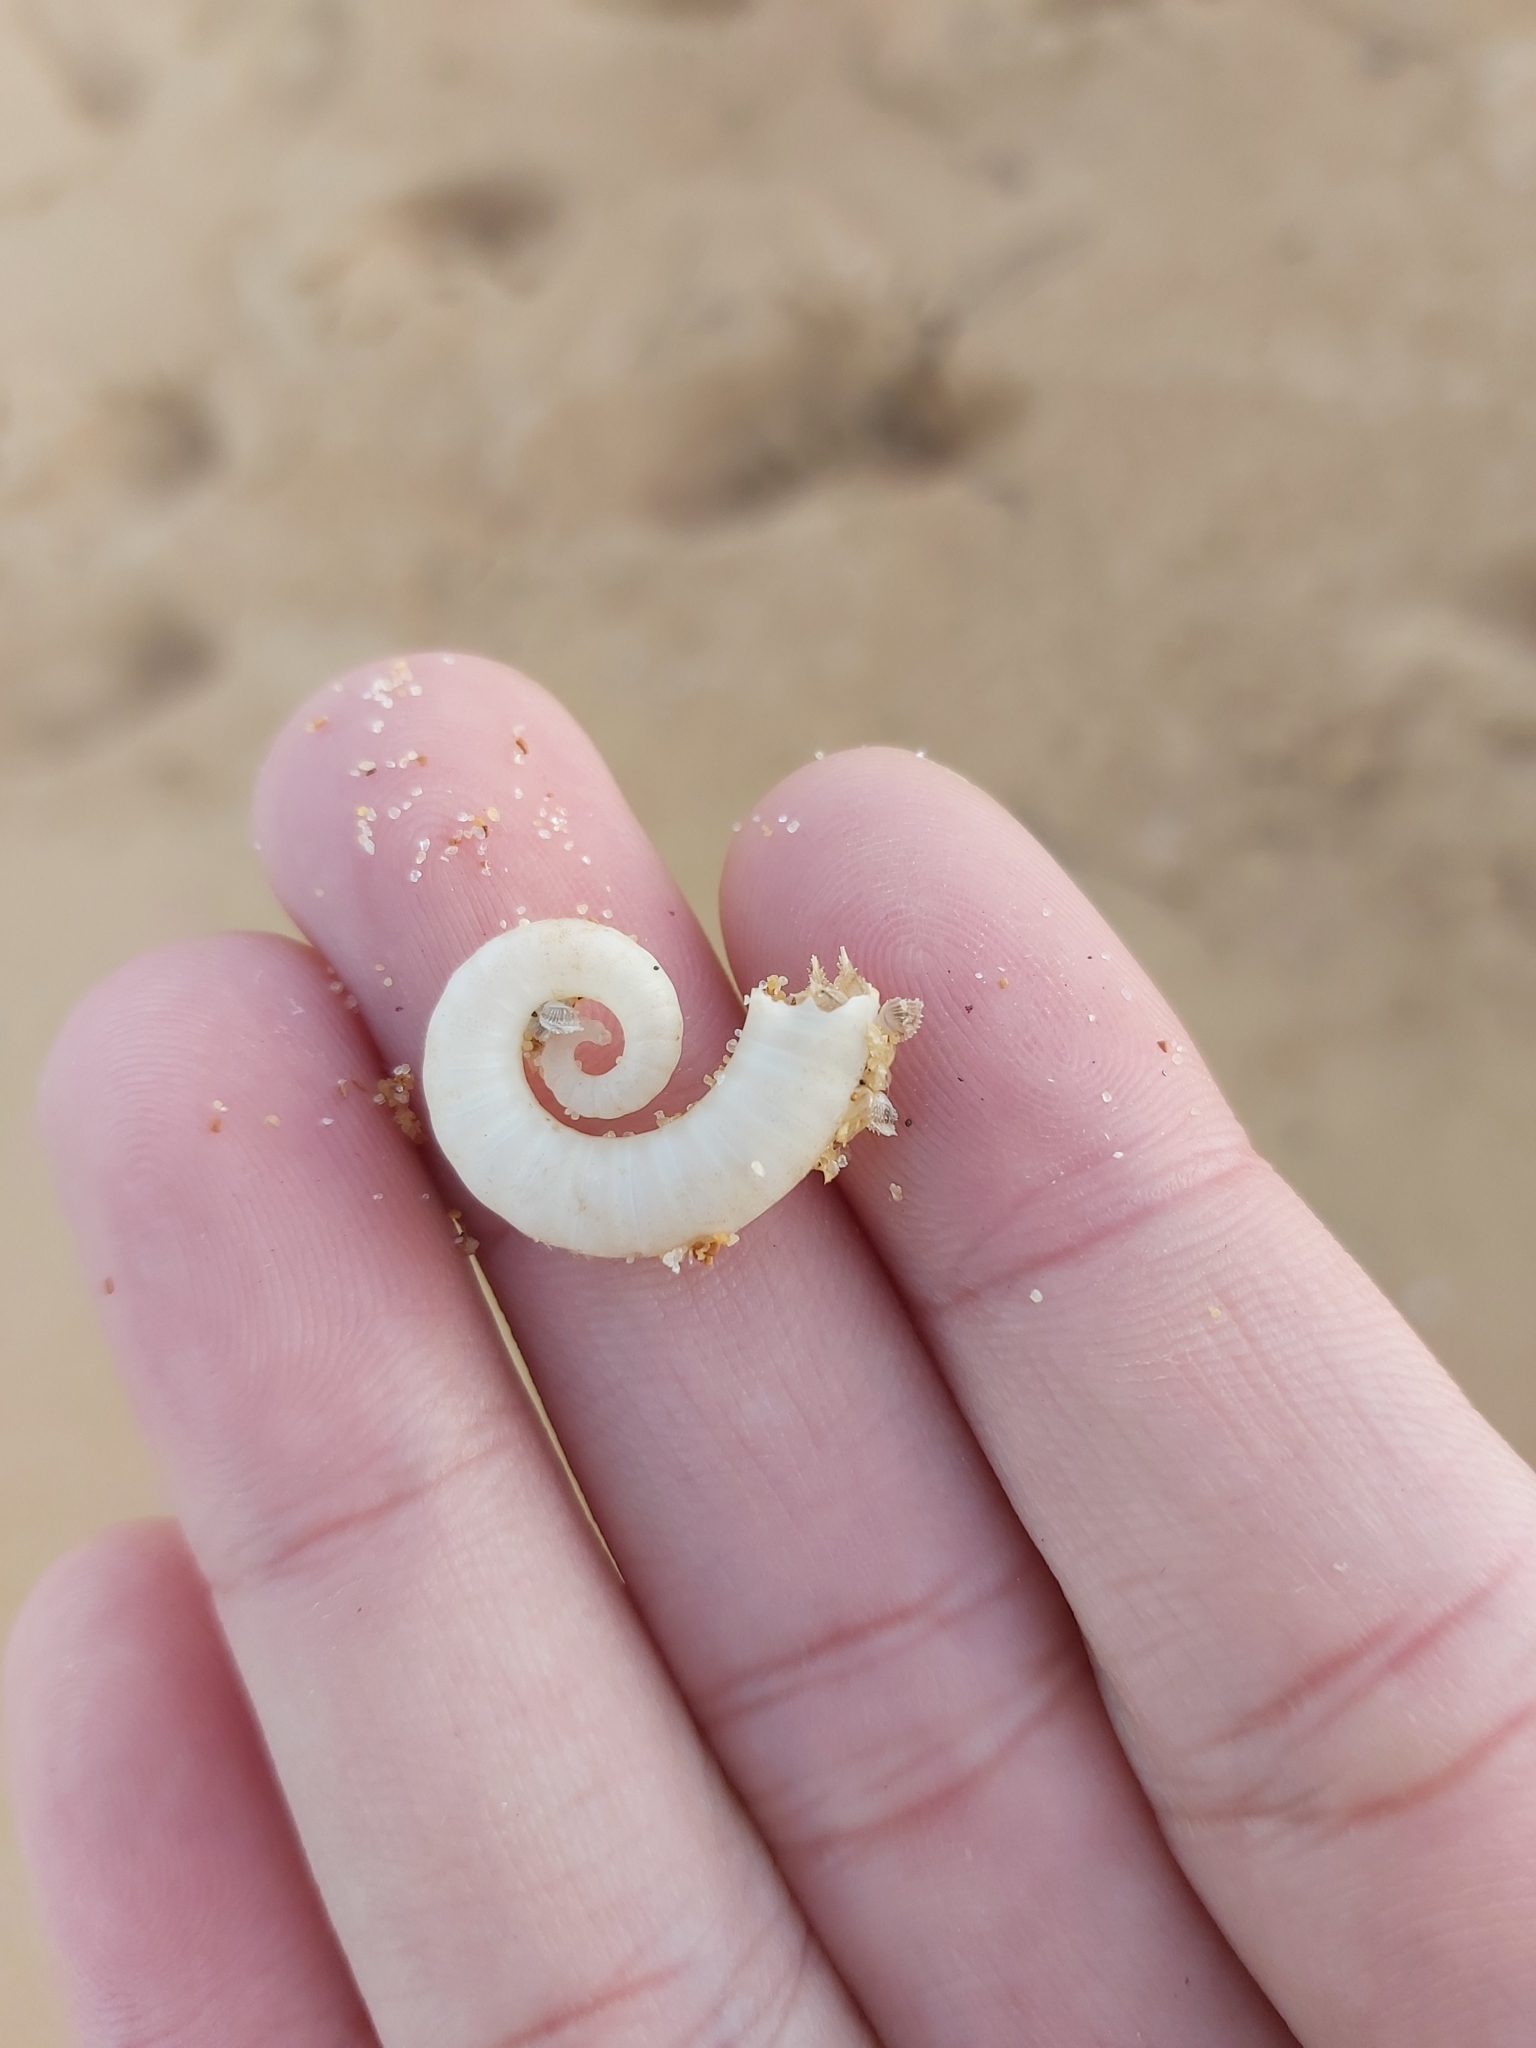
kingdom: Animalia
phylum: Mollusca
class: Cephalopoda
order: Spirulida
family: Spirulidae
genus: Spirula
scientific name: Spirula spirula
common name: Ram's horn squid
